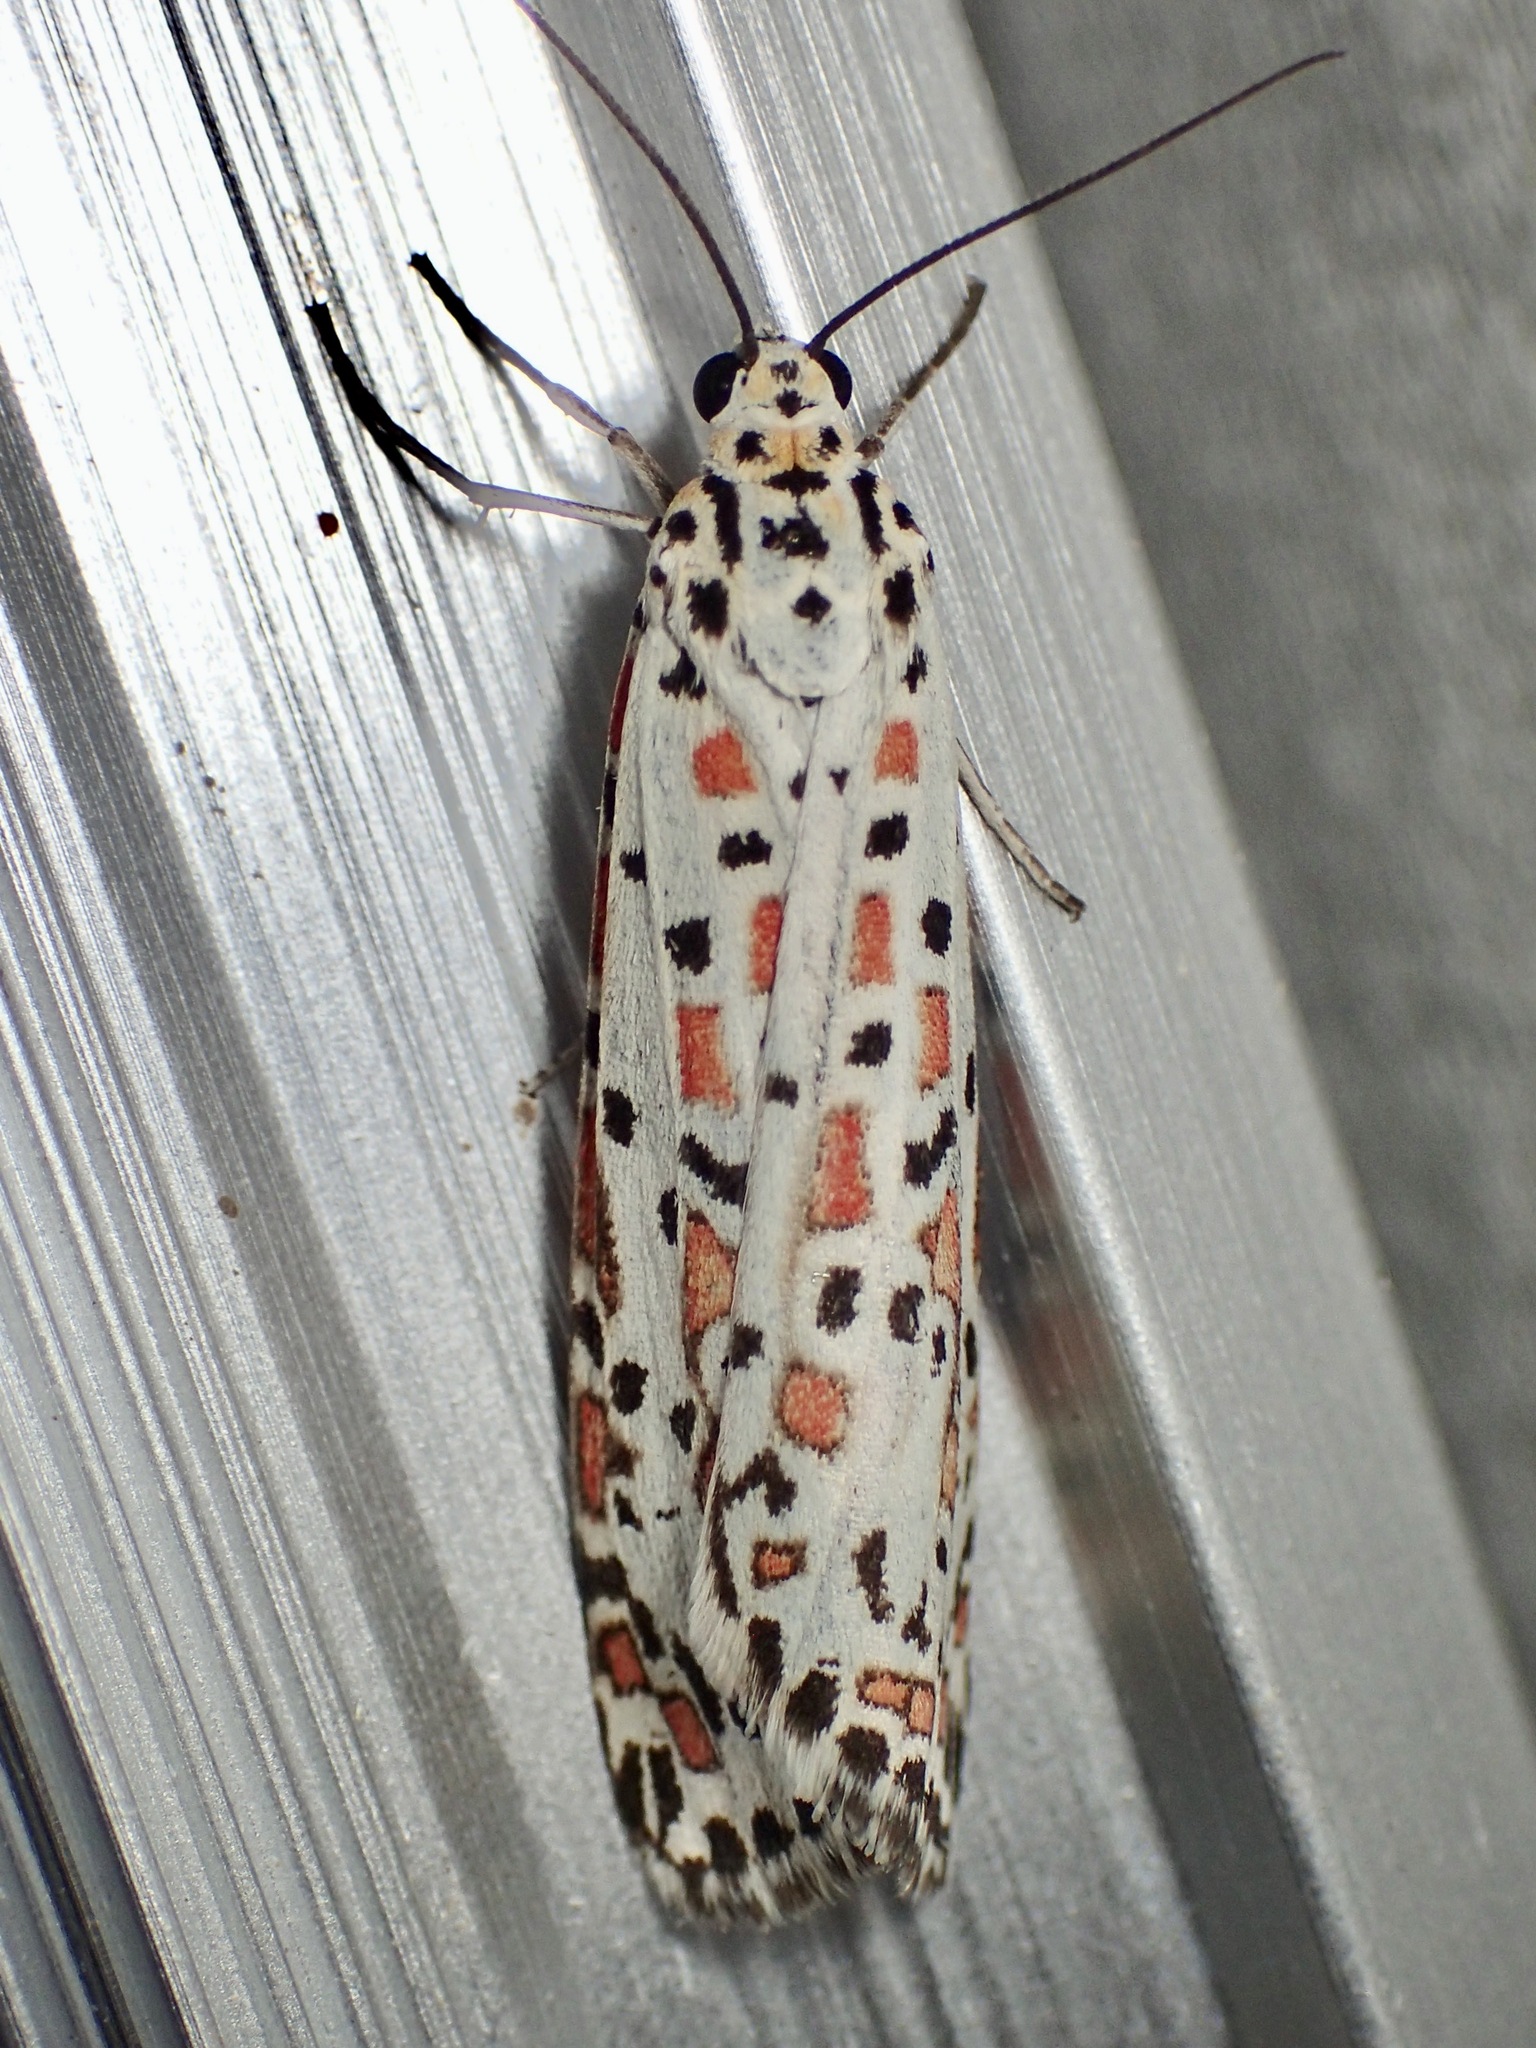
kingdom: Animalia
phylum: Arthropoda
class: Insecta
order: Lepidoptera
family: Erebidae
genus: Utetheisa
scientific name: Utetheisa pulchelloides
